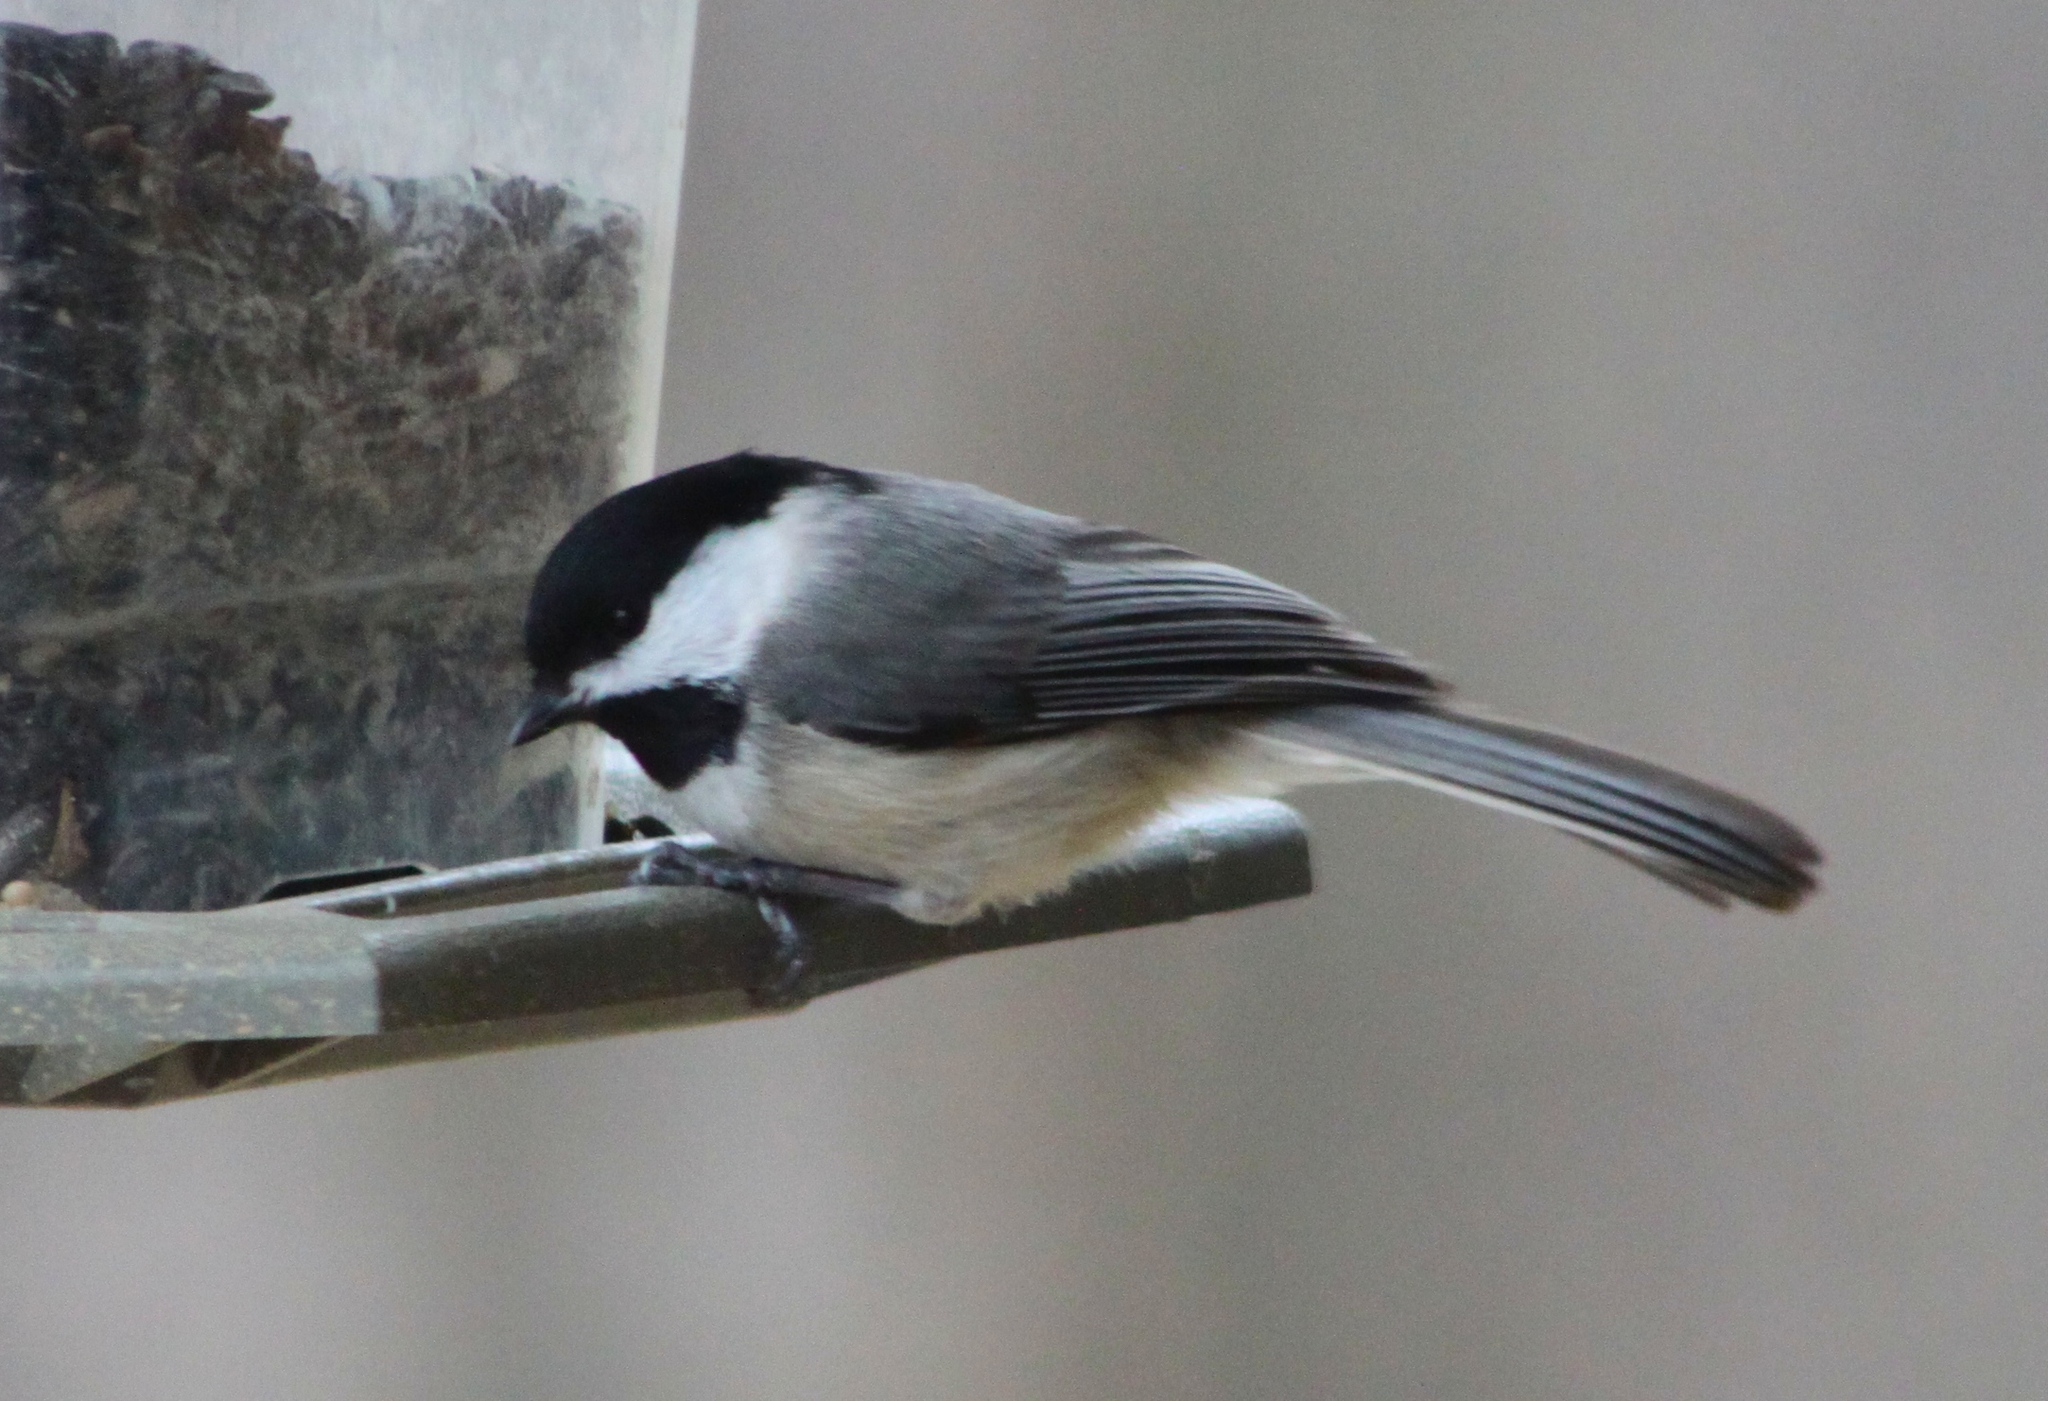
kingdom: Animalia
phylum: Chordata
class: Aves
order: Passeriformes
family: Paridae
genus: Poecile
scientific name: Poecile atricapillus
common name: Black-capped chickadee
